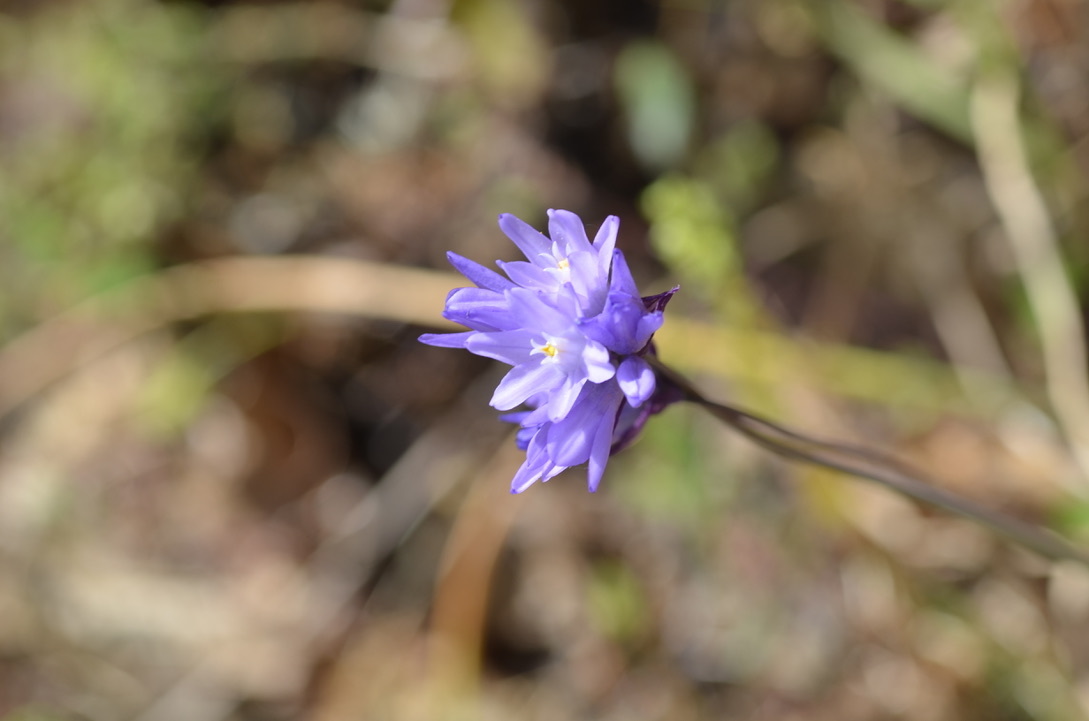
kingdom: Plantae
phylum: Tracheophyta
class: Liliopsida
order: Asparagales
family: Asparagaceae
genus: Dipterostemon
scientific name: Dipterostemon capitatus
